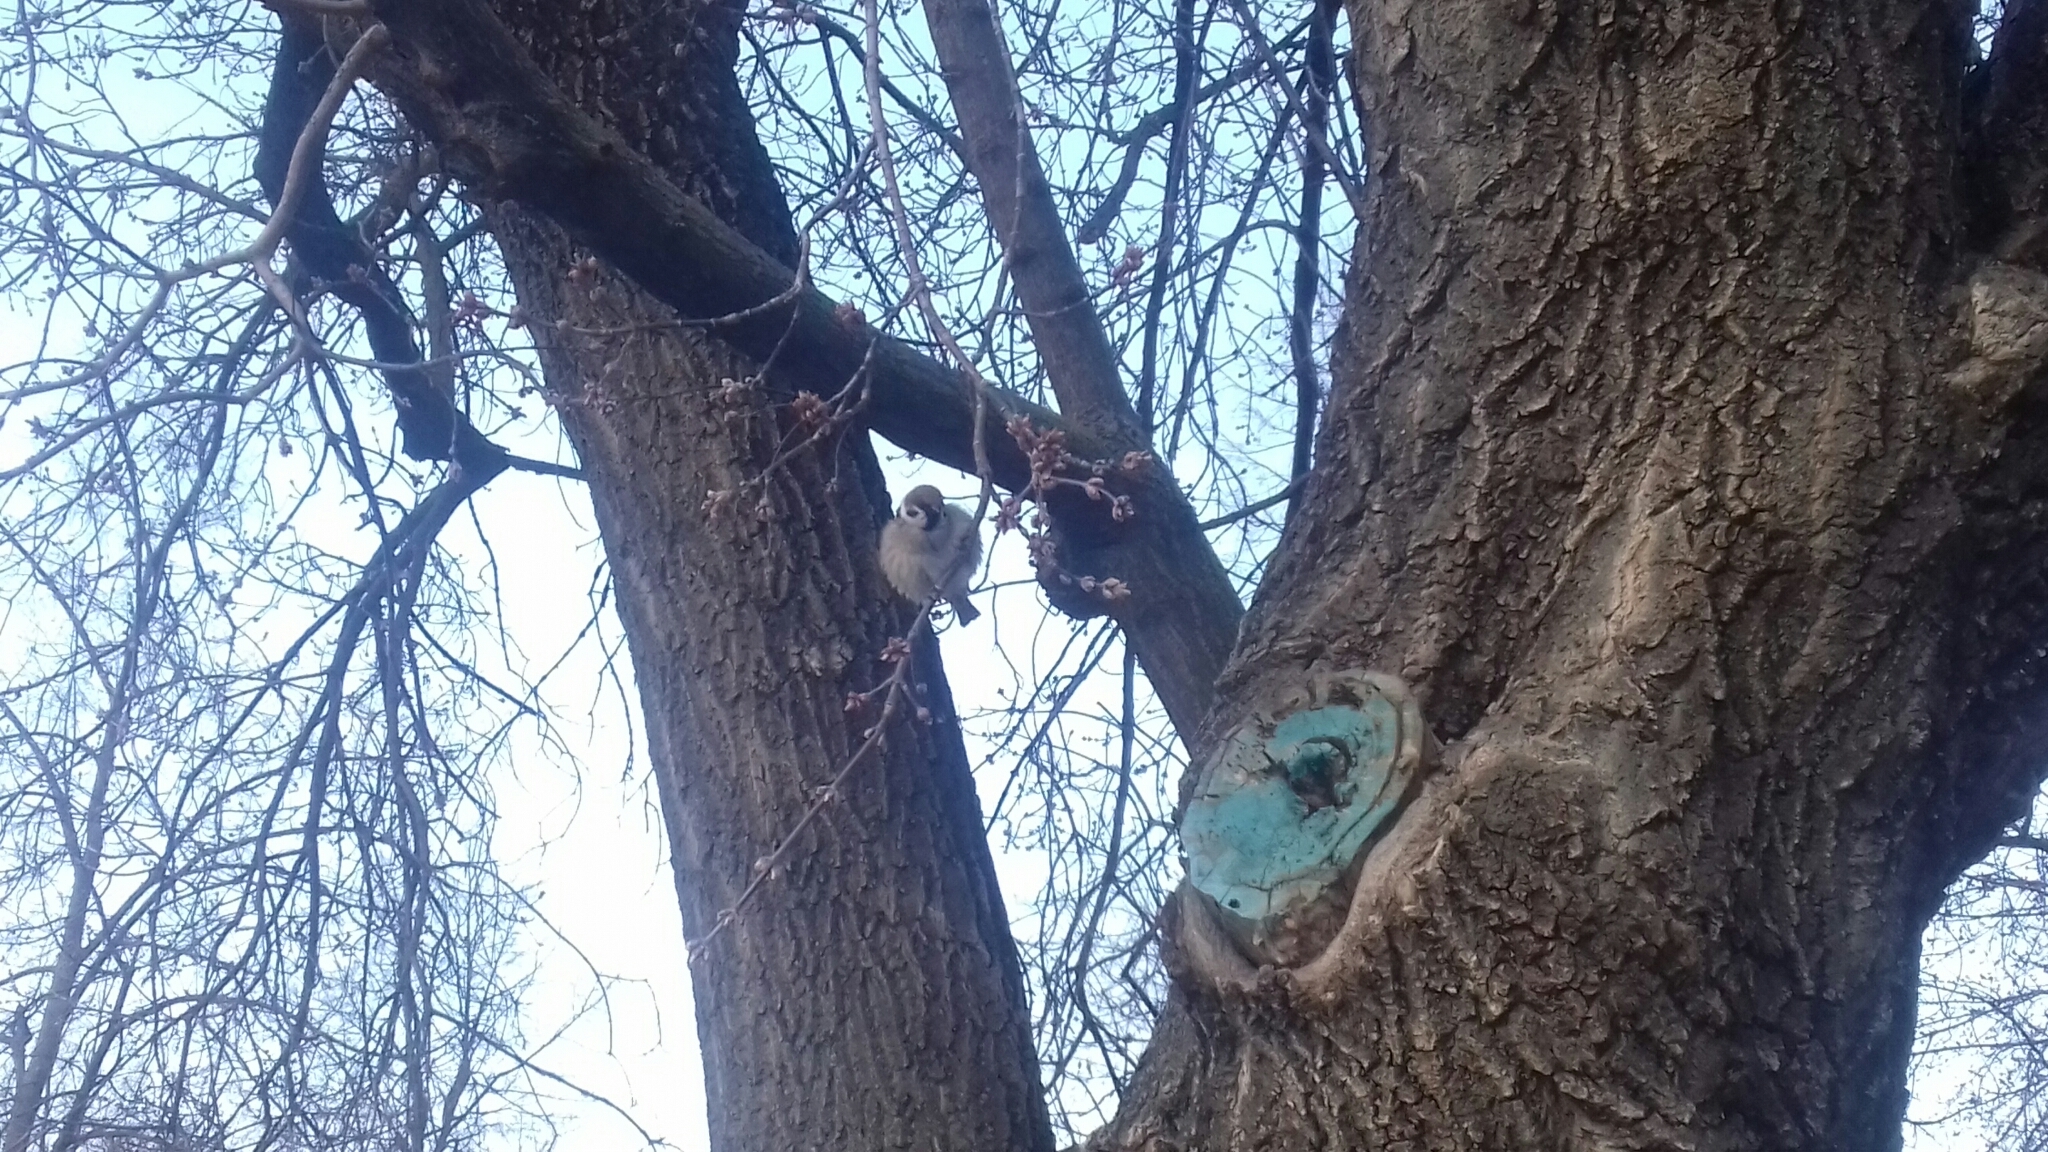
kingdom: Animalia
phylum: Chordata
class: Aves
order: Passeriformes
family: Passeridae
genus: Passer
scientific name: Passer montanus
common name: Eurasian tree sparrow
